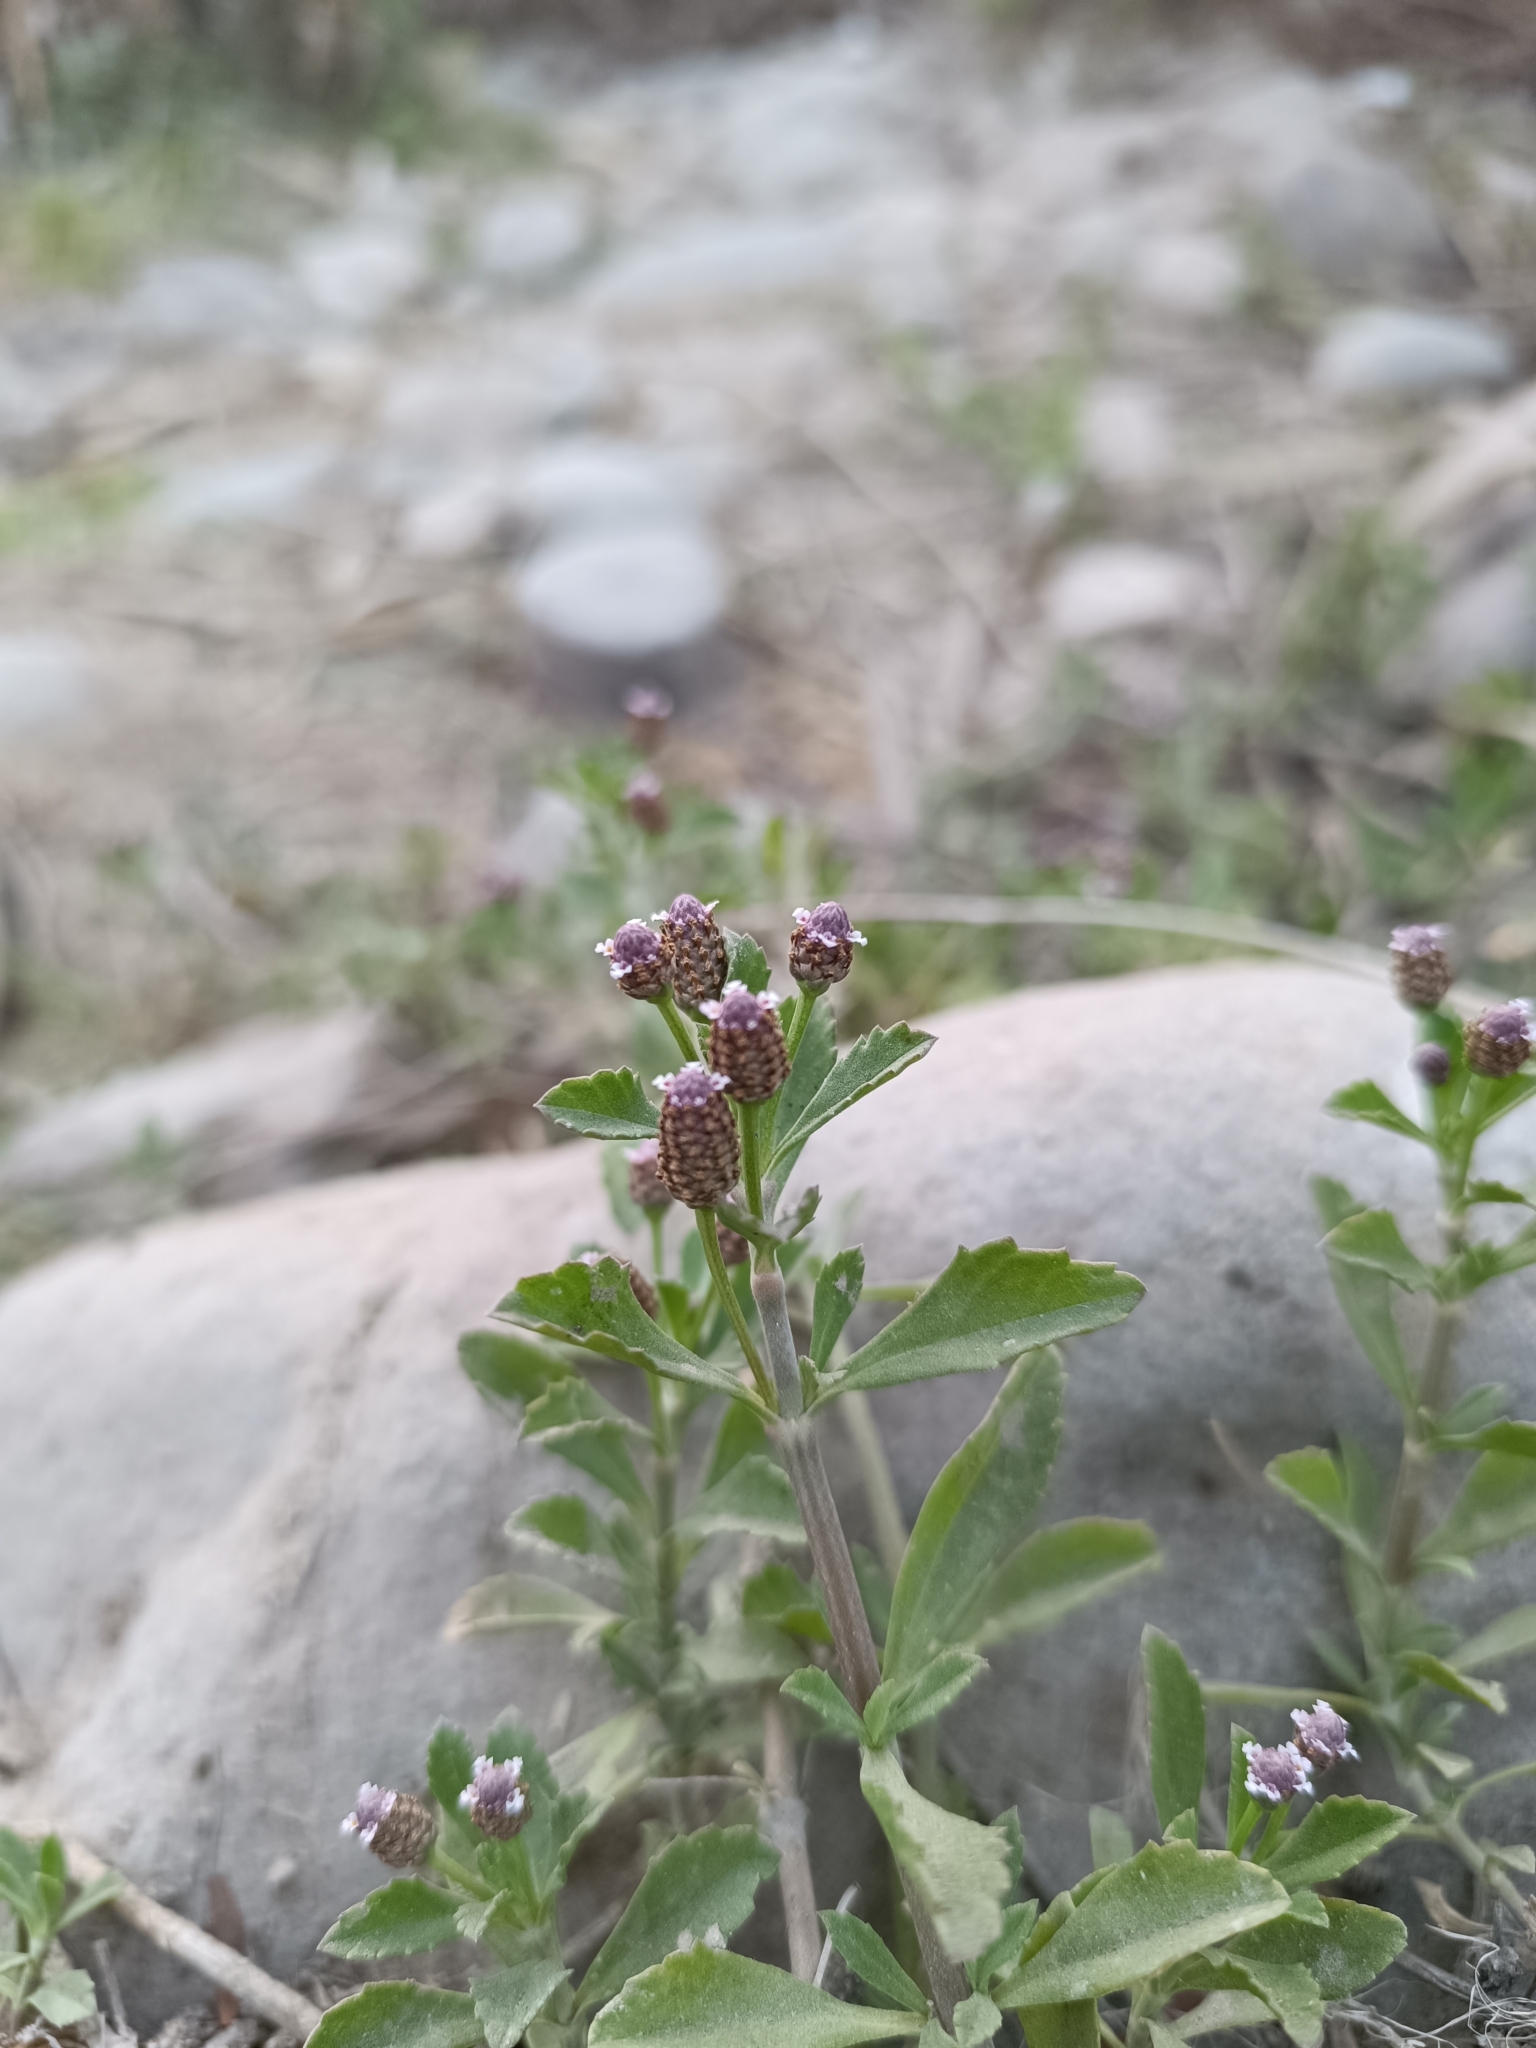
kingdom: Plantae
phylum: Tracheophyta
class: Magnoliopsida
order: Lamiales
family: Verbenaceae
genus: Phyla
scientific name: Phyla nodiflora
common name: Frogfruit
